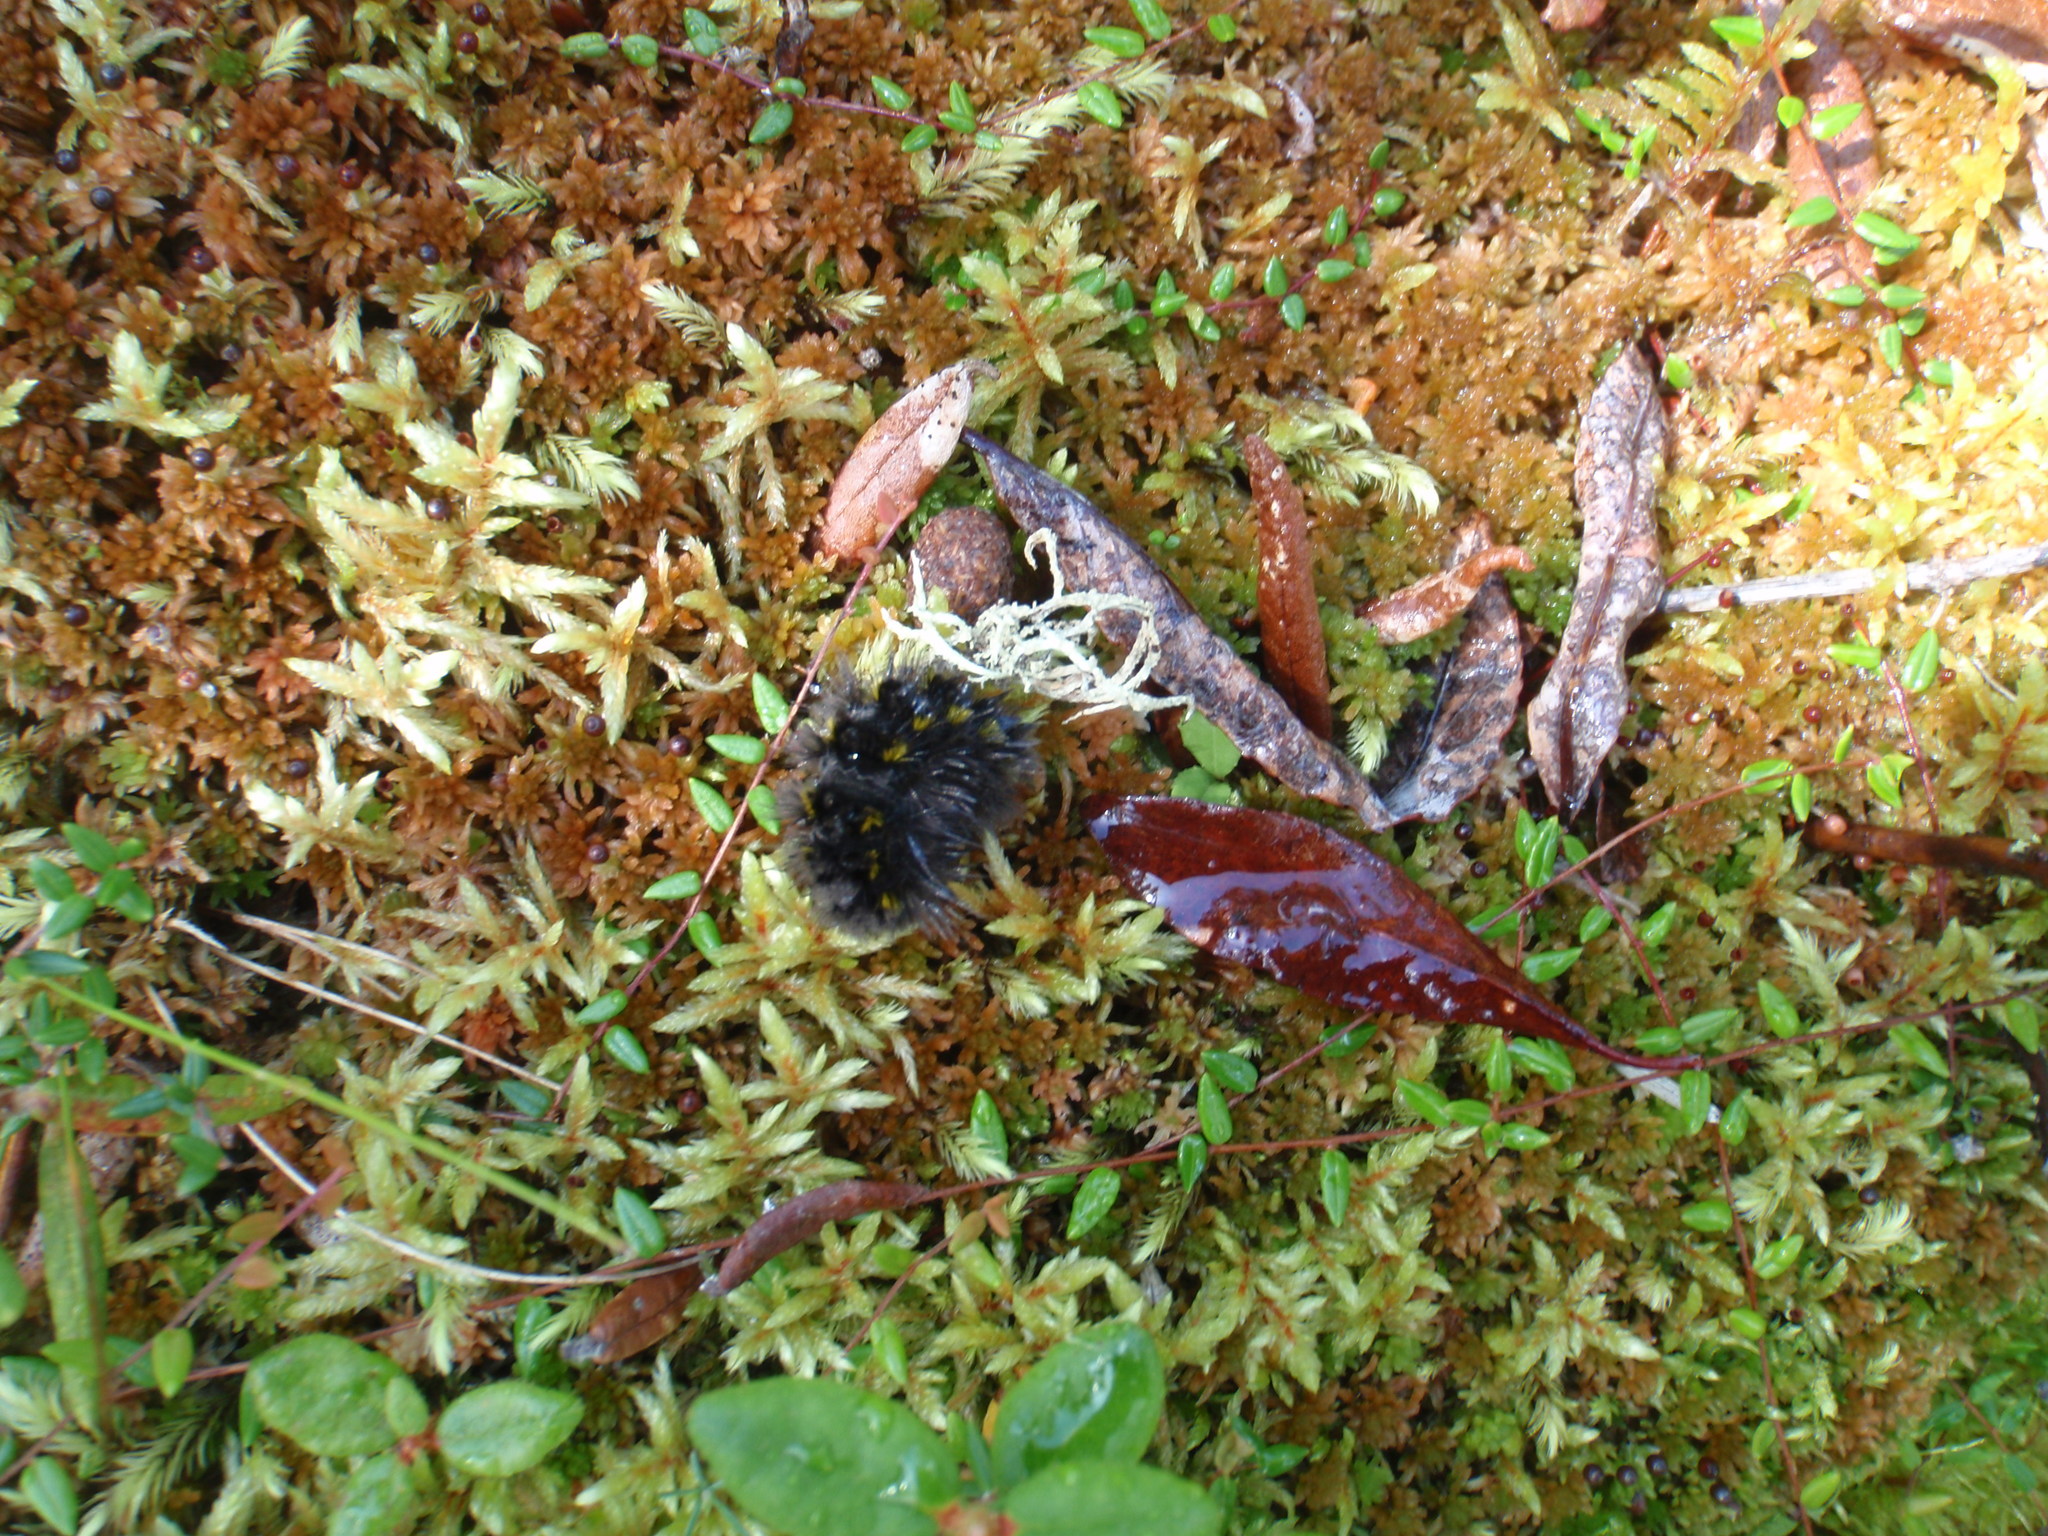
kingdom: Animalia
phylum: Arthropoda
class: Insecta
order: Lepidoptera
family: Erebidae
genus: Gynaephora
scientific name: Gynaephora rossii
